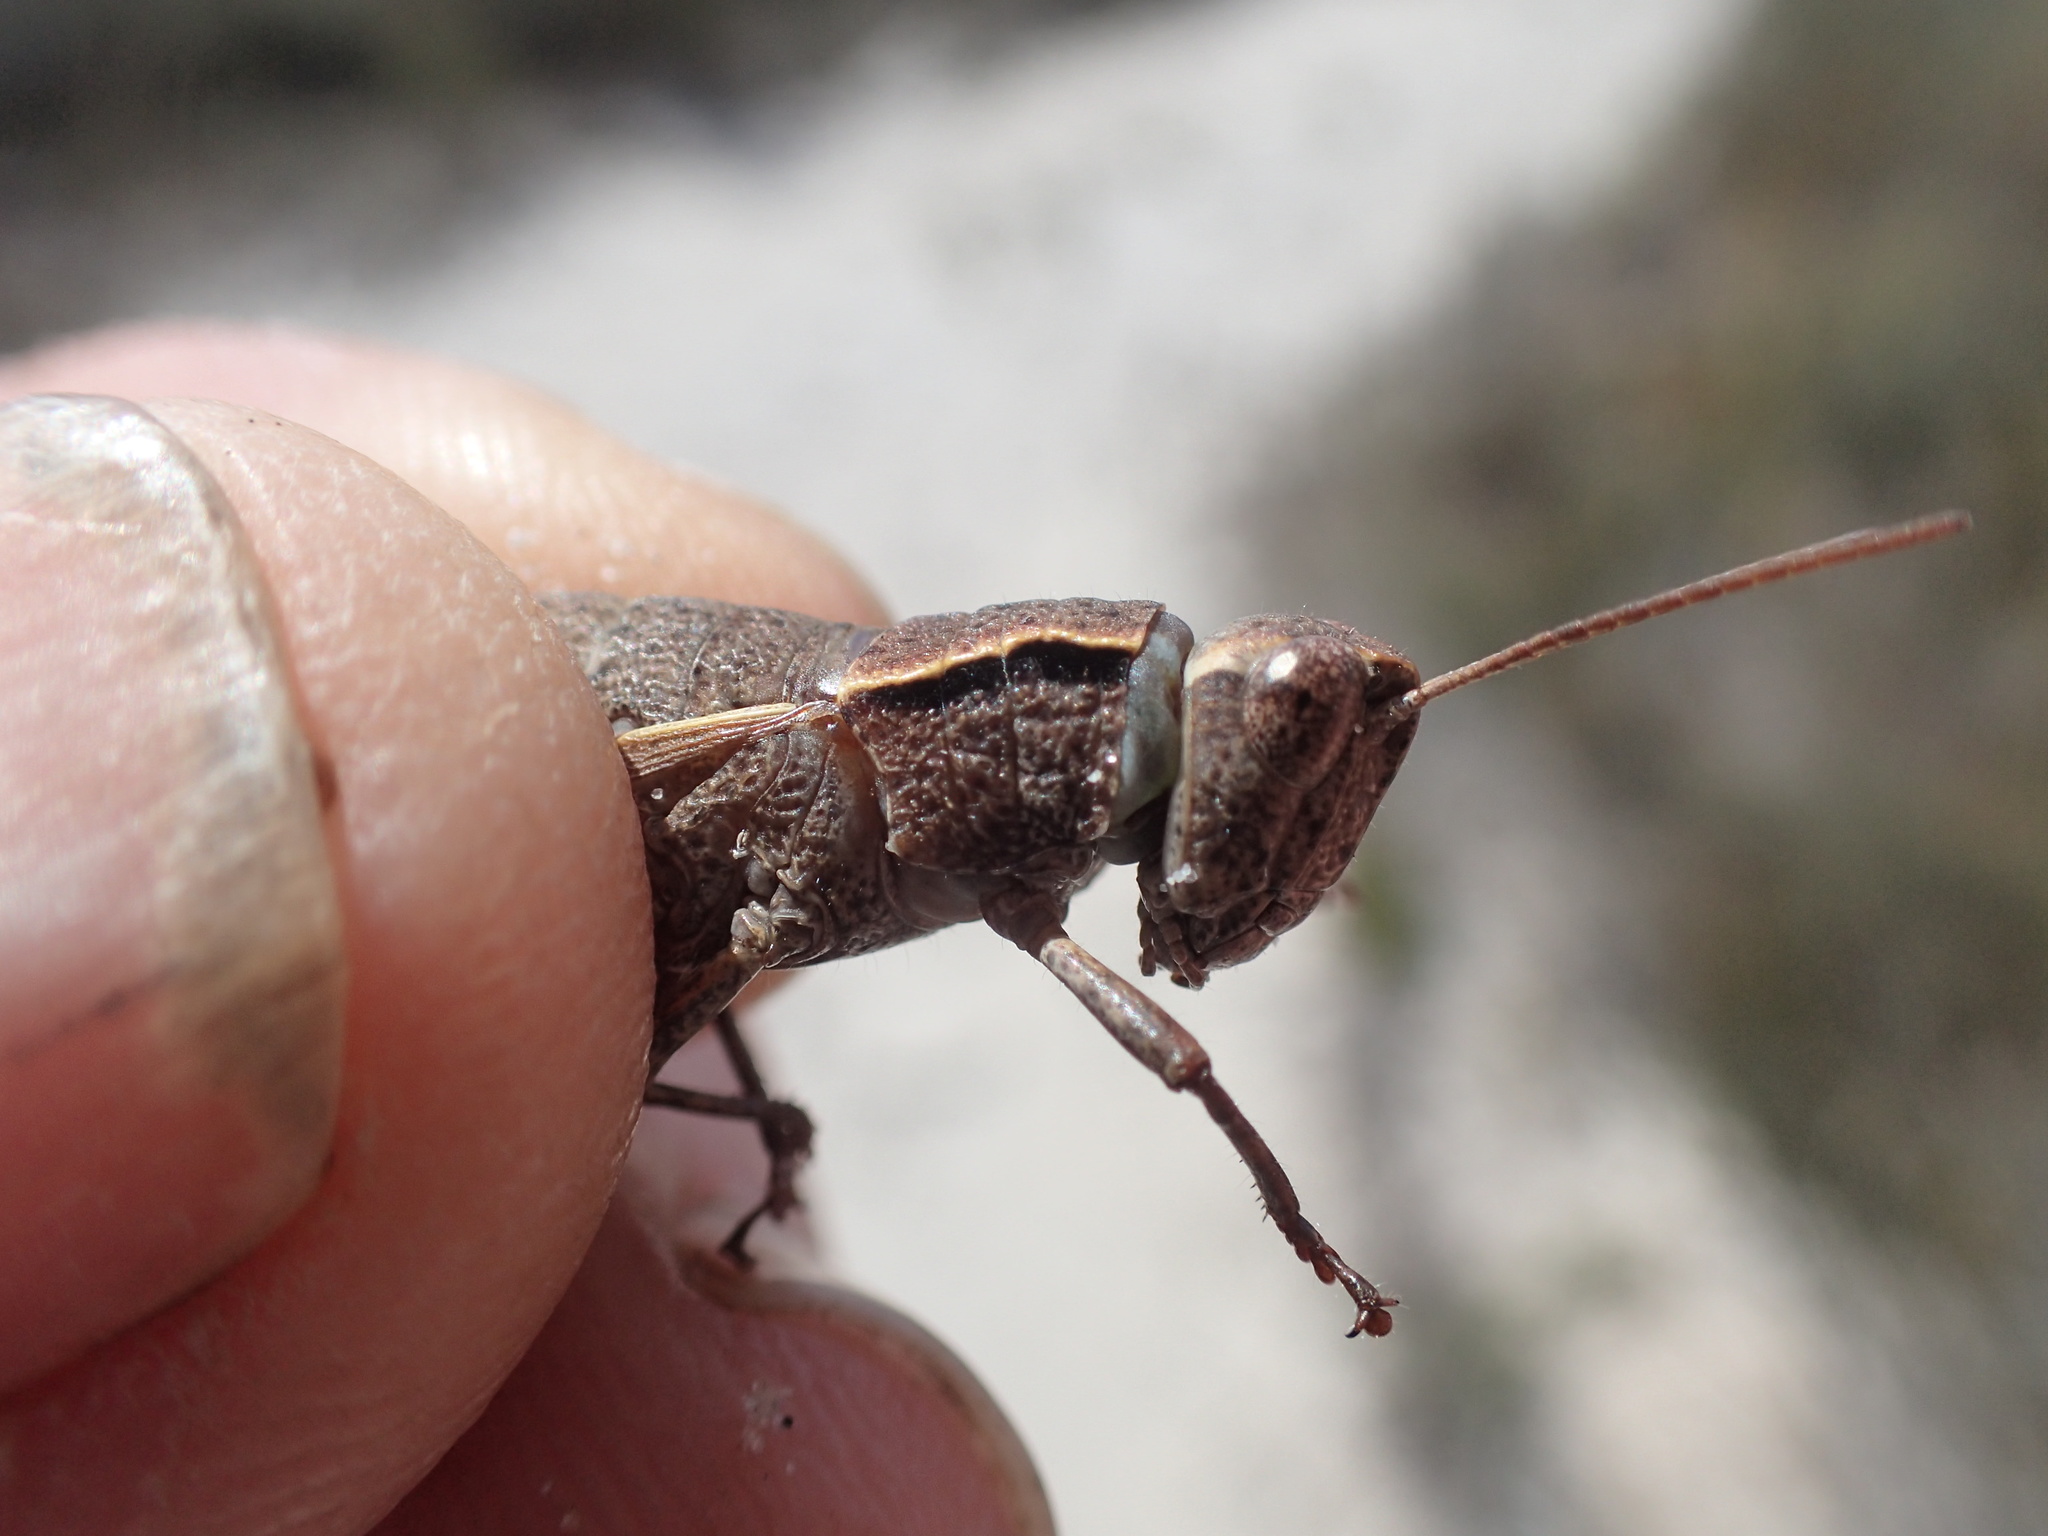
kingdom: Animalia
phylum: Arthropoda
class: Insecta
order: Orthoptera
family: Acrididae
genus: Tasmaniacris
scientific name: Tasmaniacris tasmaniensis
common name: Tasmanian grasshopper
